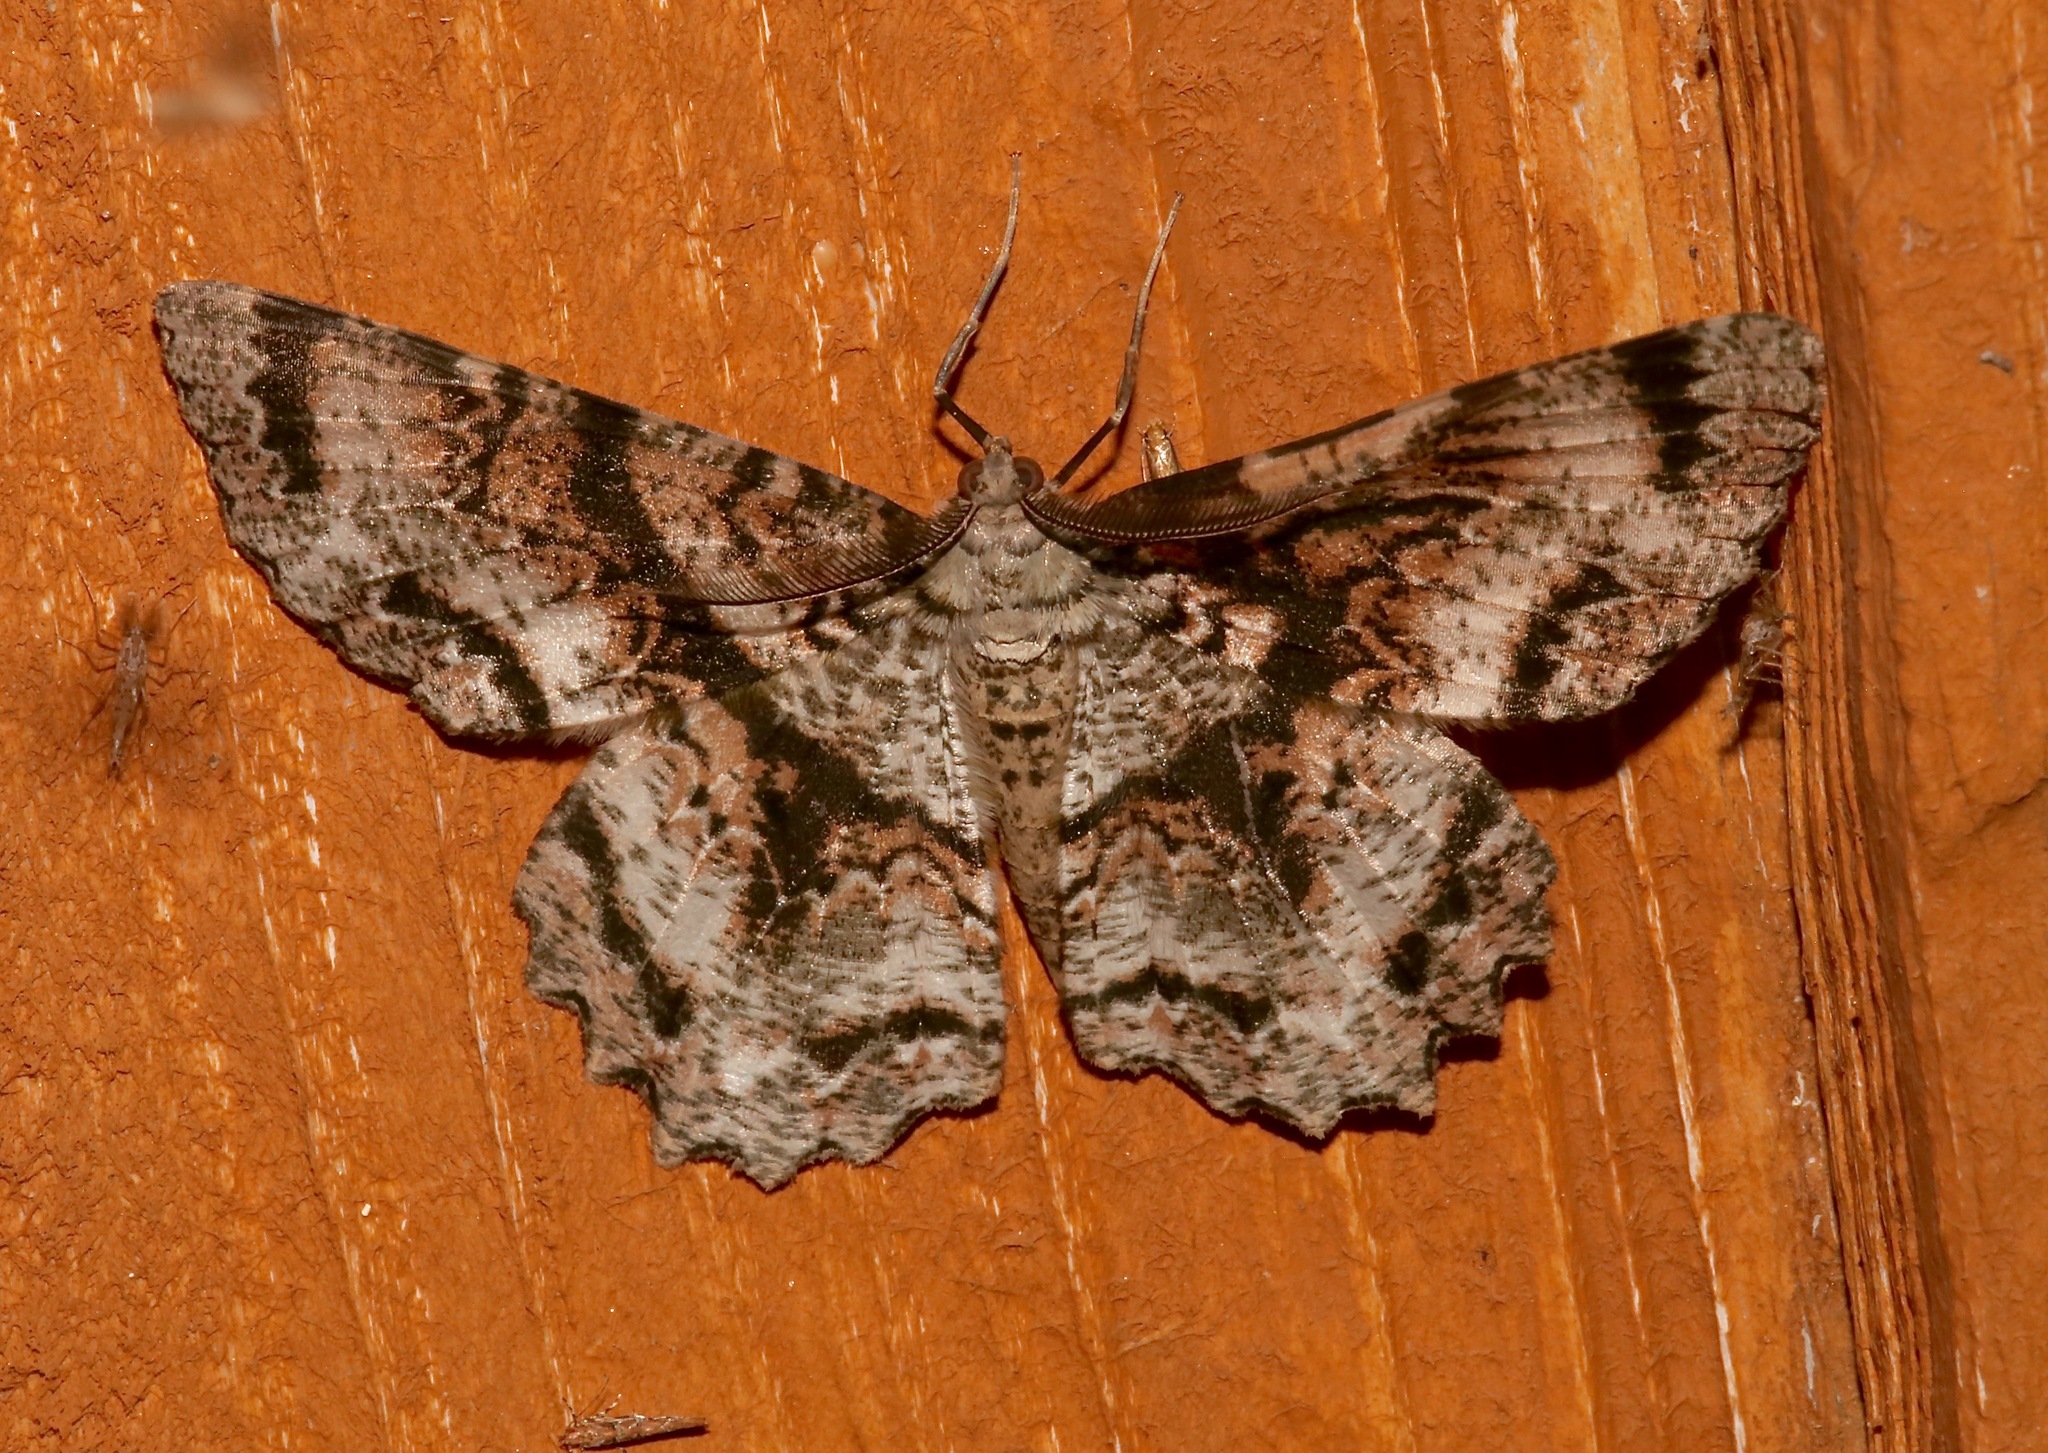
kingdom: Animalia
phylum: Arthropoda
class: Insecta
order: Lepidoptera
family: Geometridae
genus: Epimecis
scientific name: Epimecis hortaria
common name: Tulip-tree beauty
